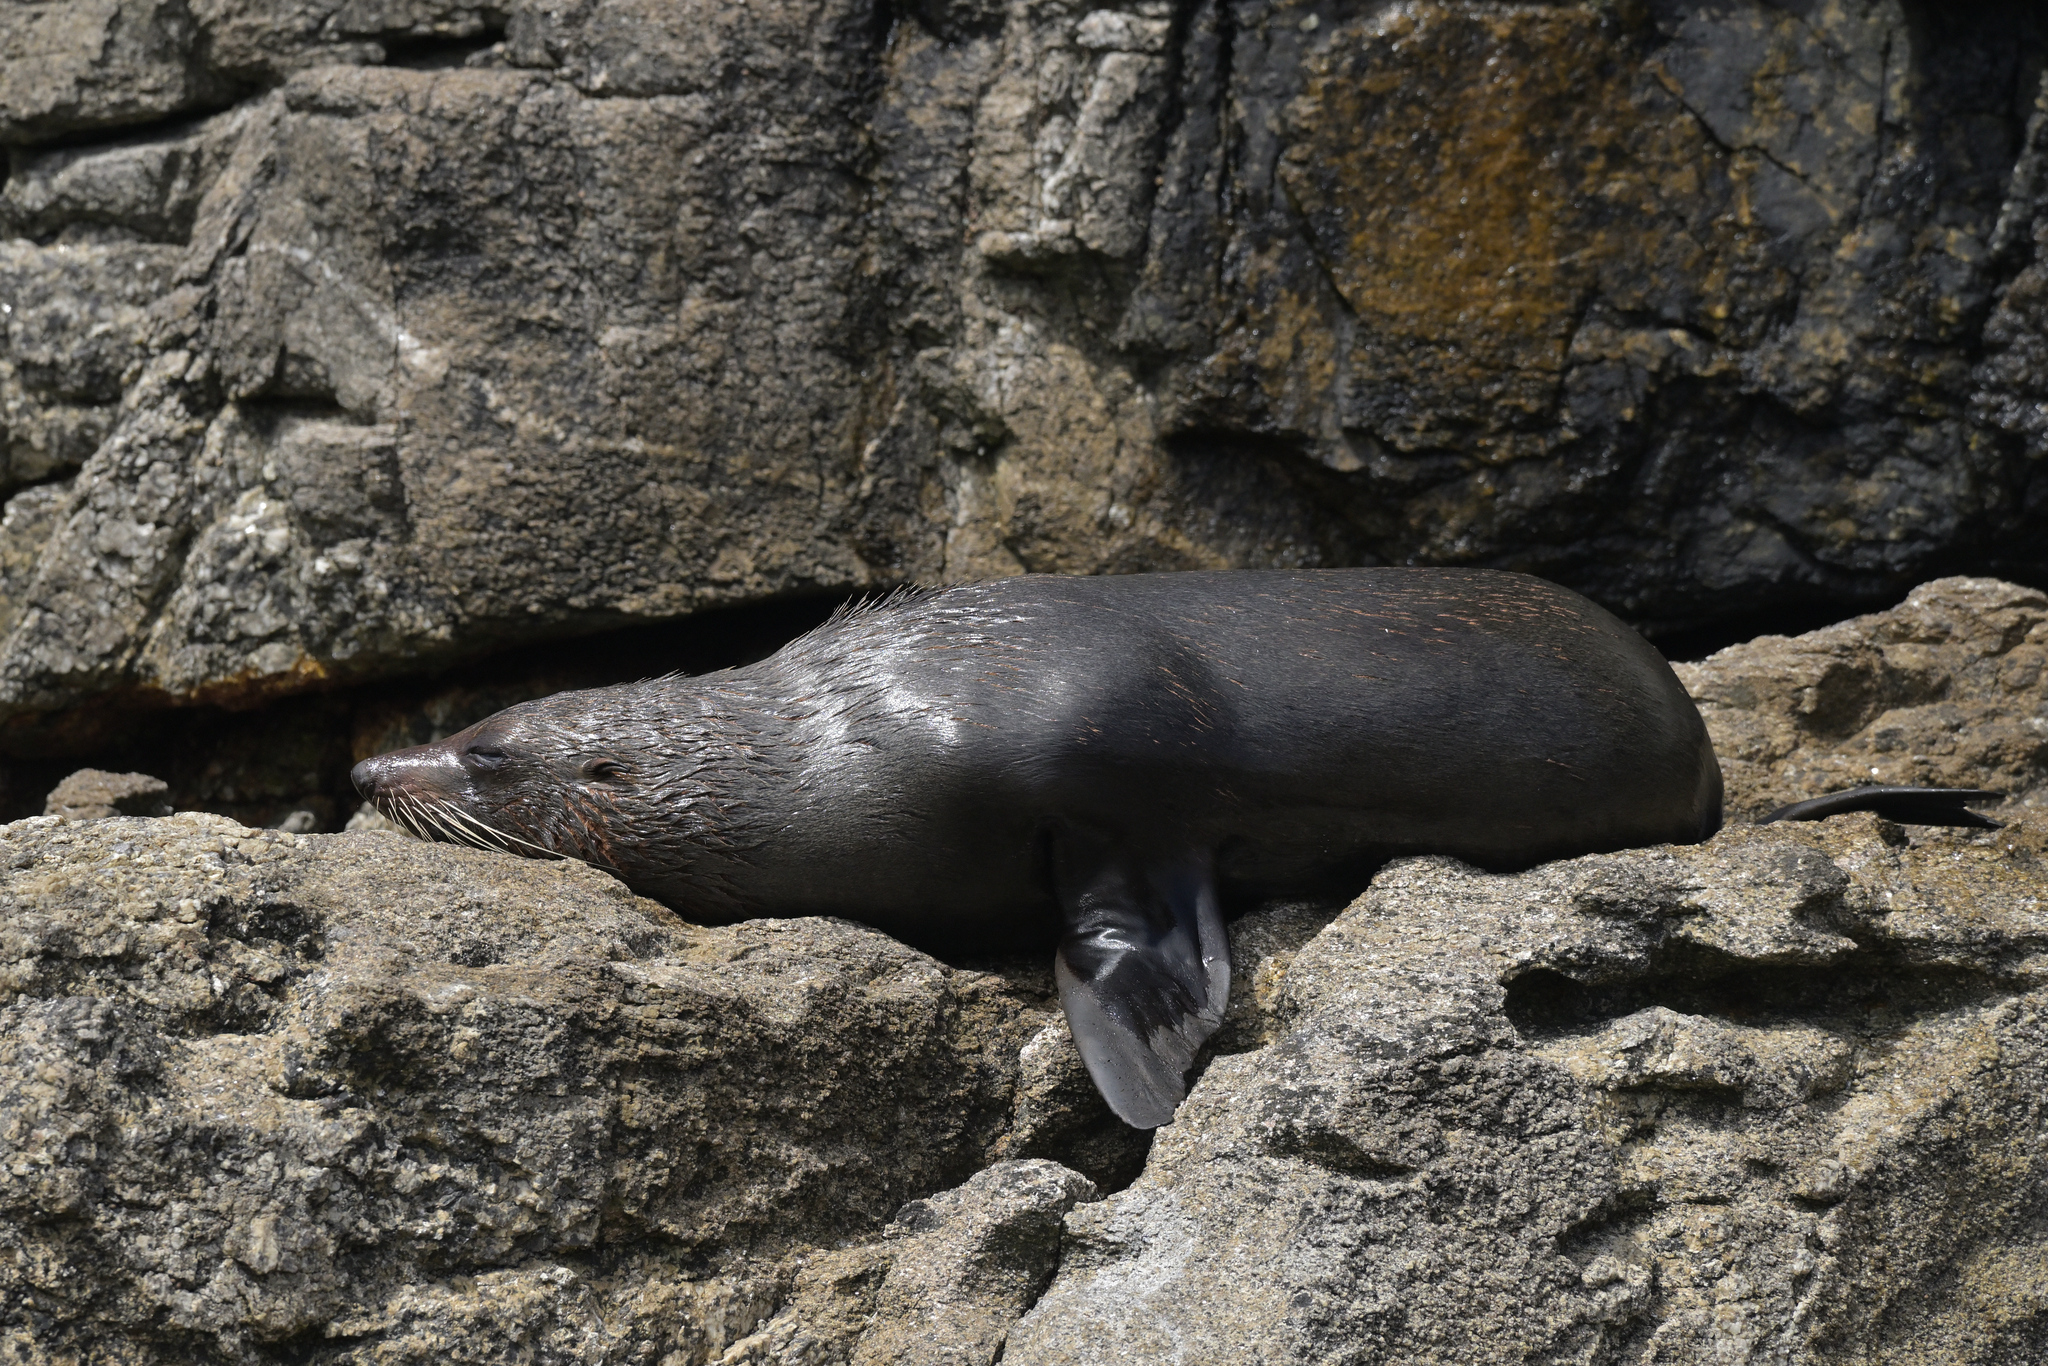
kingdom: Animalia
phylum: Chordata
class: Mammalia
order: Carnivora
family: Otariidae
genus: Arctocephalus
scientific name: Arctocephalus forsteri
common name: New zealand fur seal
